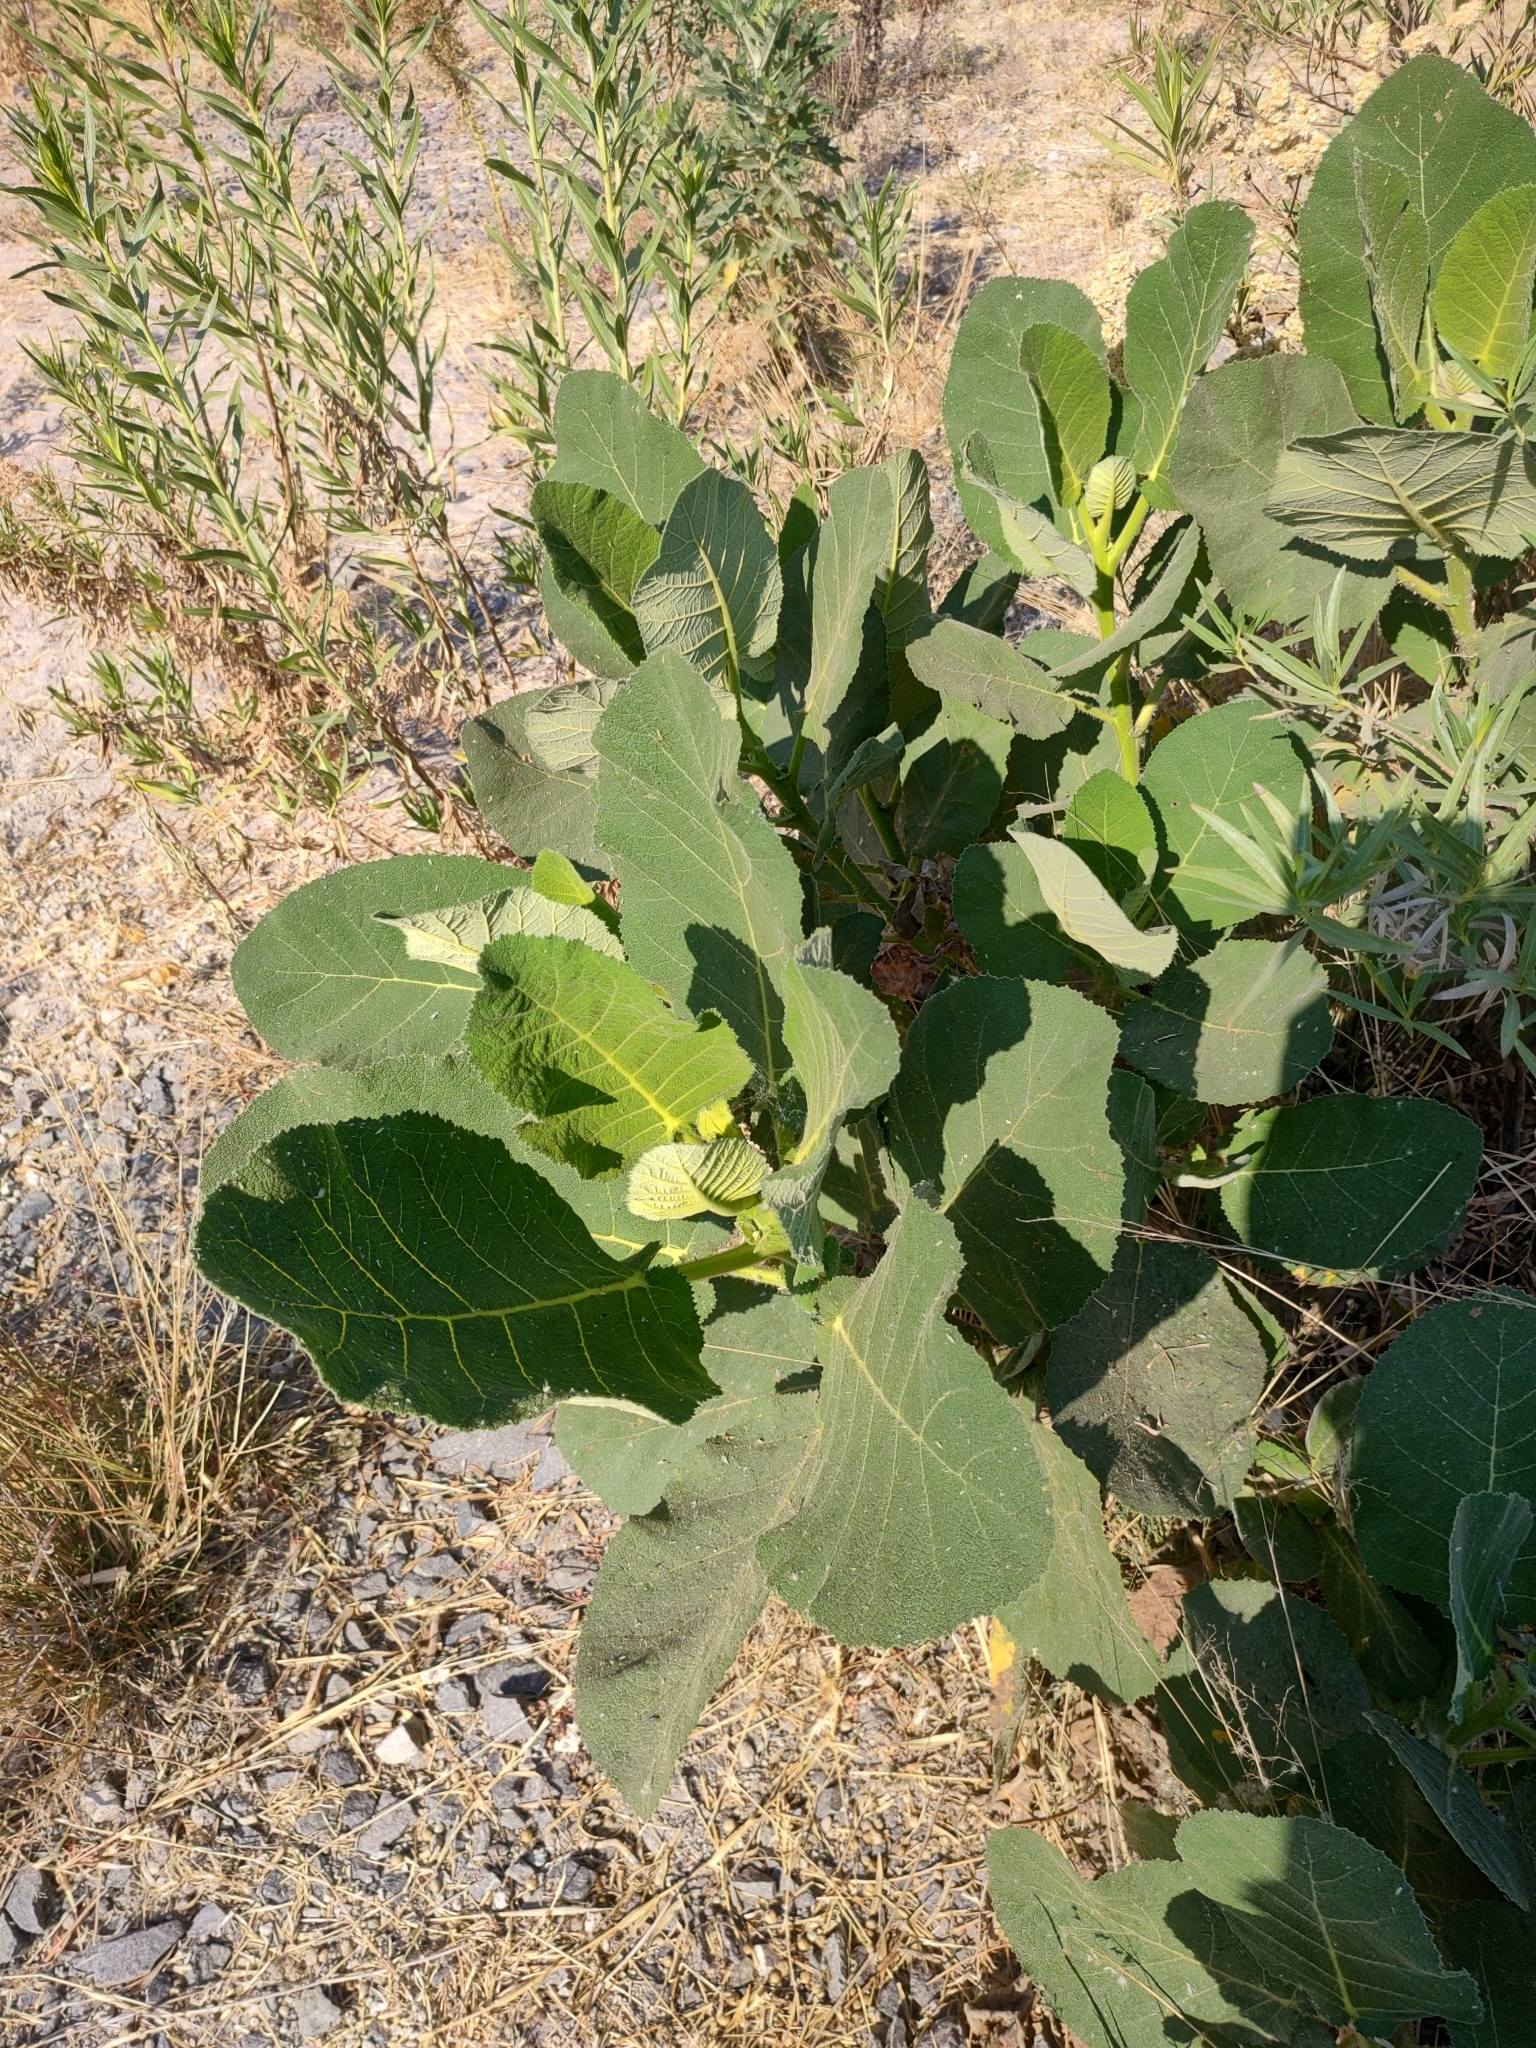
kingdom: Plantae
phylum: Tracheophyta
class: Magnoliopsida
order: Boraginales
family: Namaceae
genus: Wigandia
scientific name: Wigandia urens
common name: Caracus wigandia
